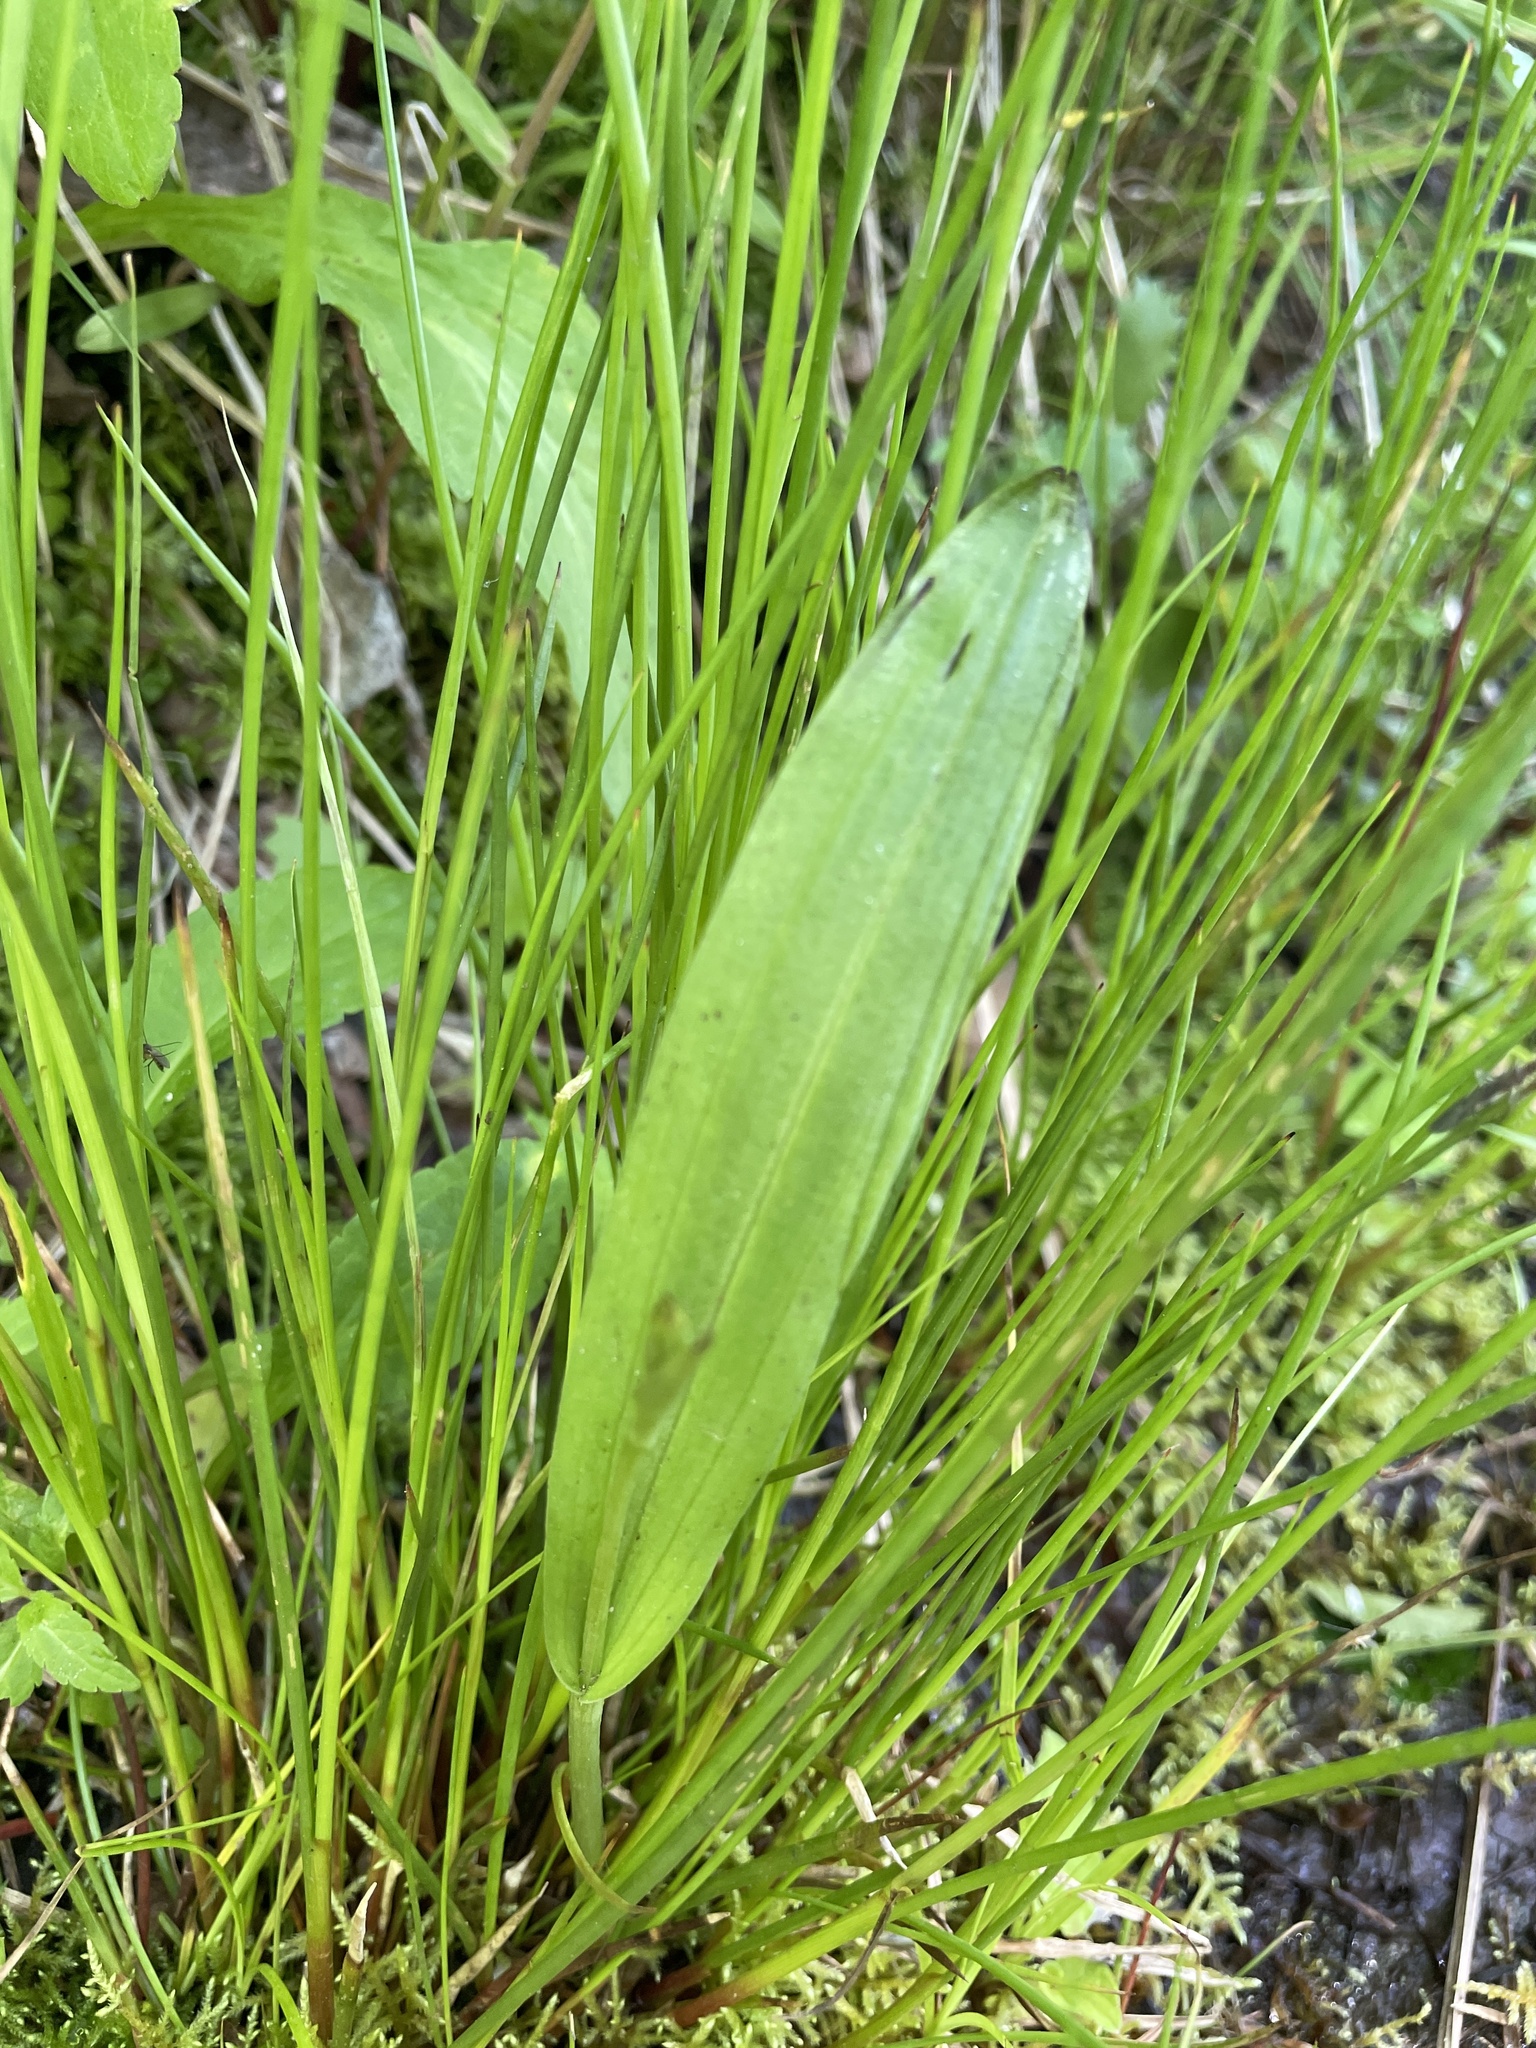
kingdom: Plantae
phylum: Tracheophyta
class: Liliopsida
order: Asparagales
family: Orchidaceae
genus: Platanthera
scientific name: Platanthera clavellata
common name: Club-spur orchid
